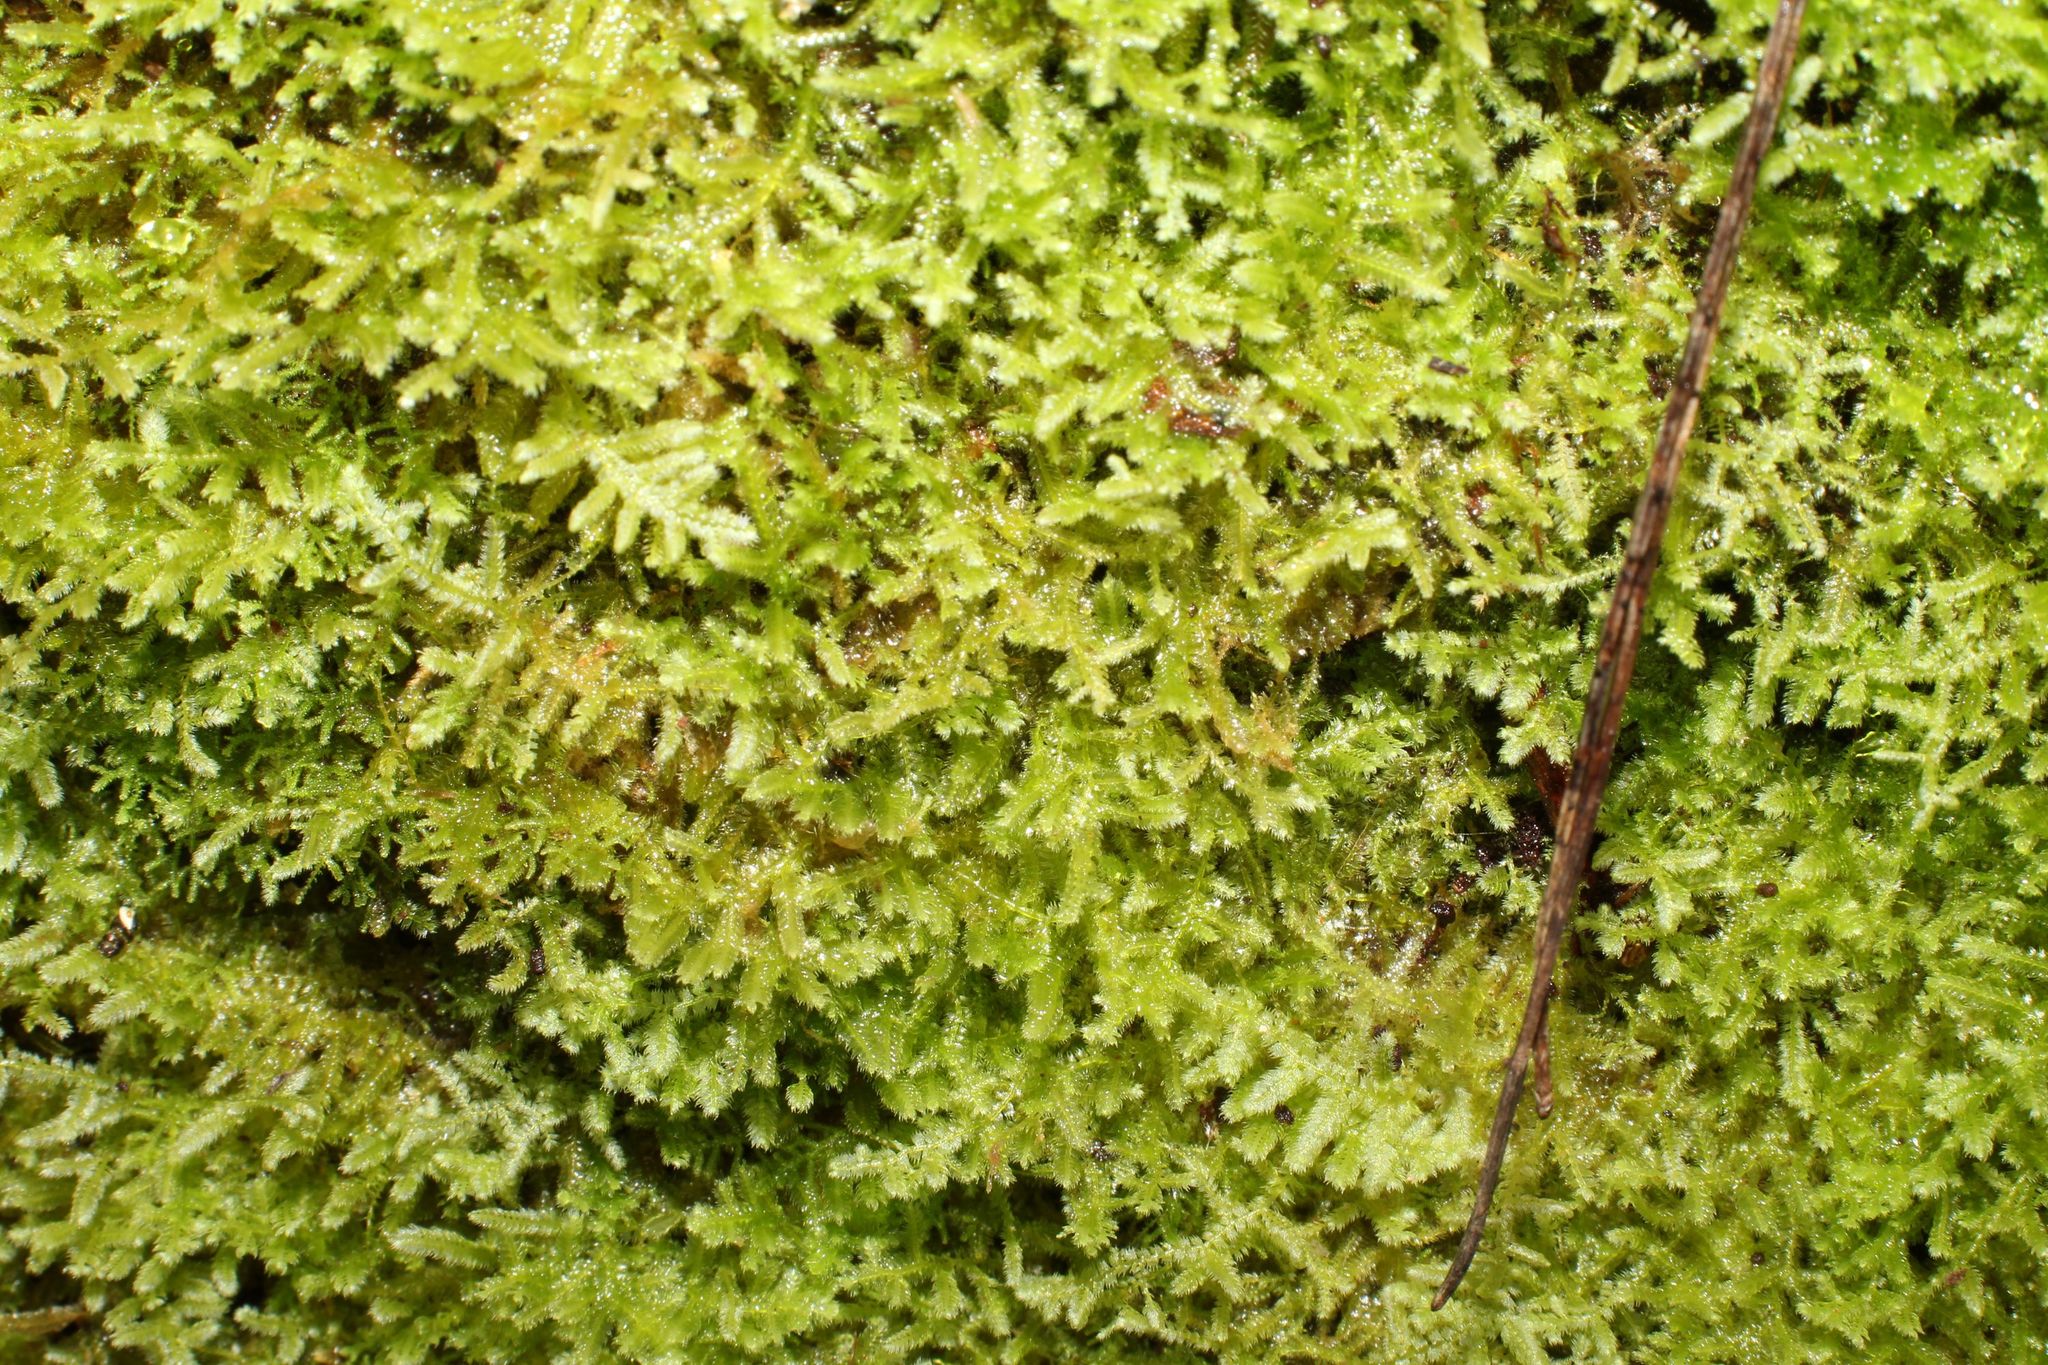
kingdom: Plantae
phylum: Marchantiophyta
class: Jungermanniopsida
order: Jungermanniales
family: Lepidoziaceae
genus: Ceramanus
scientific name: Ceramanus clatritexta
